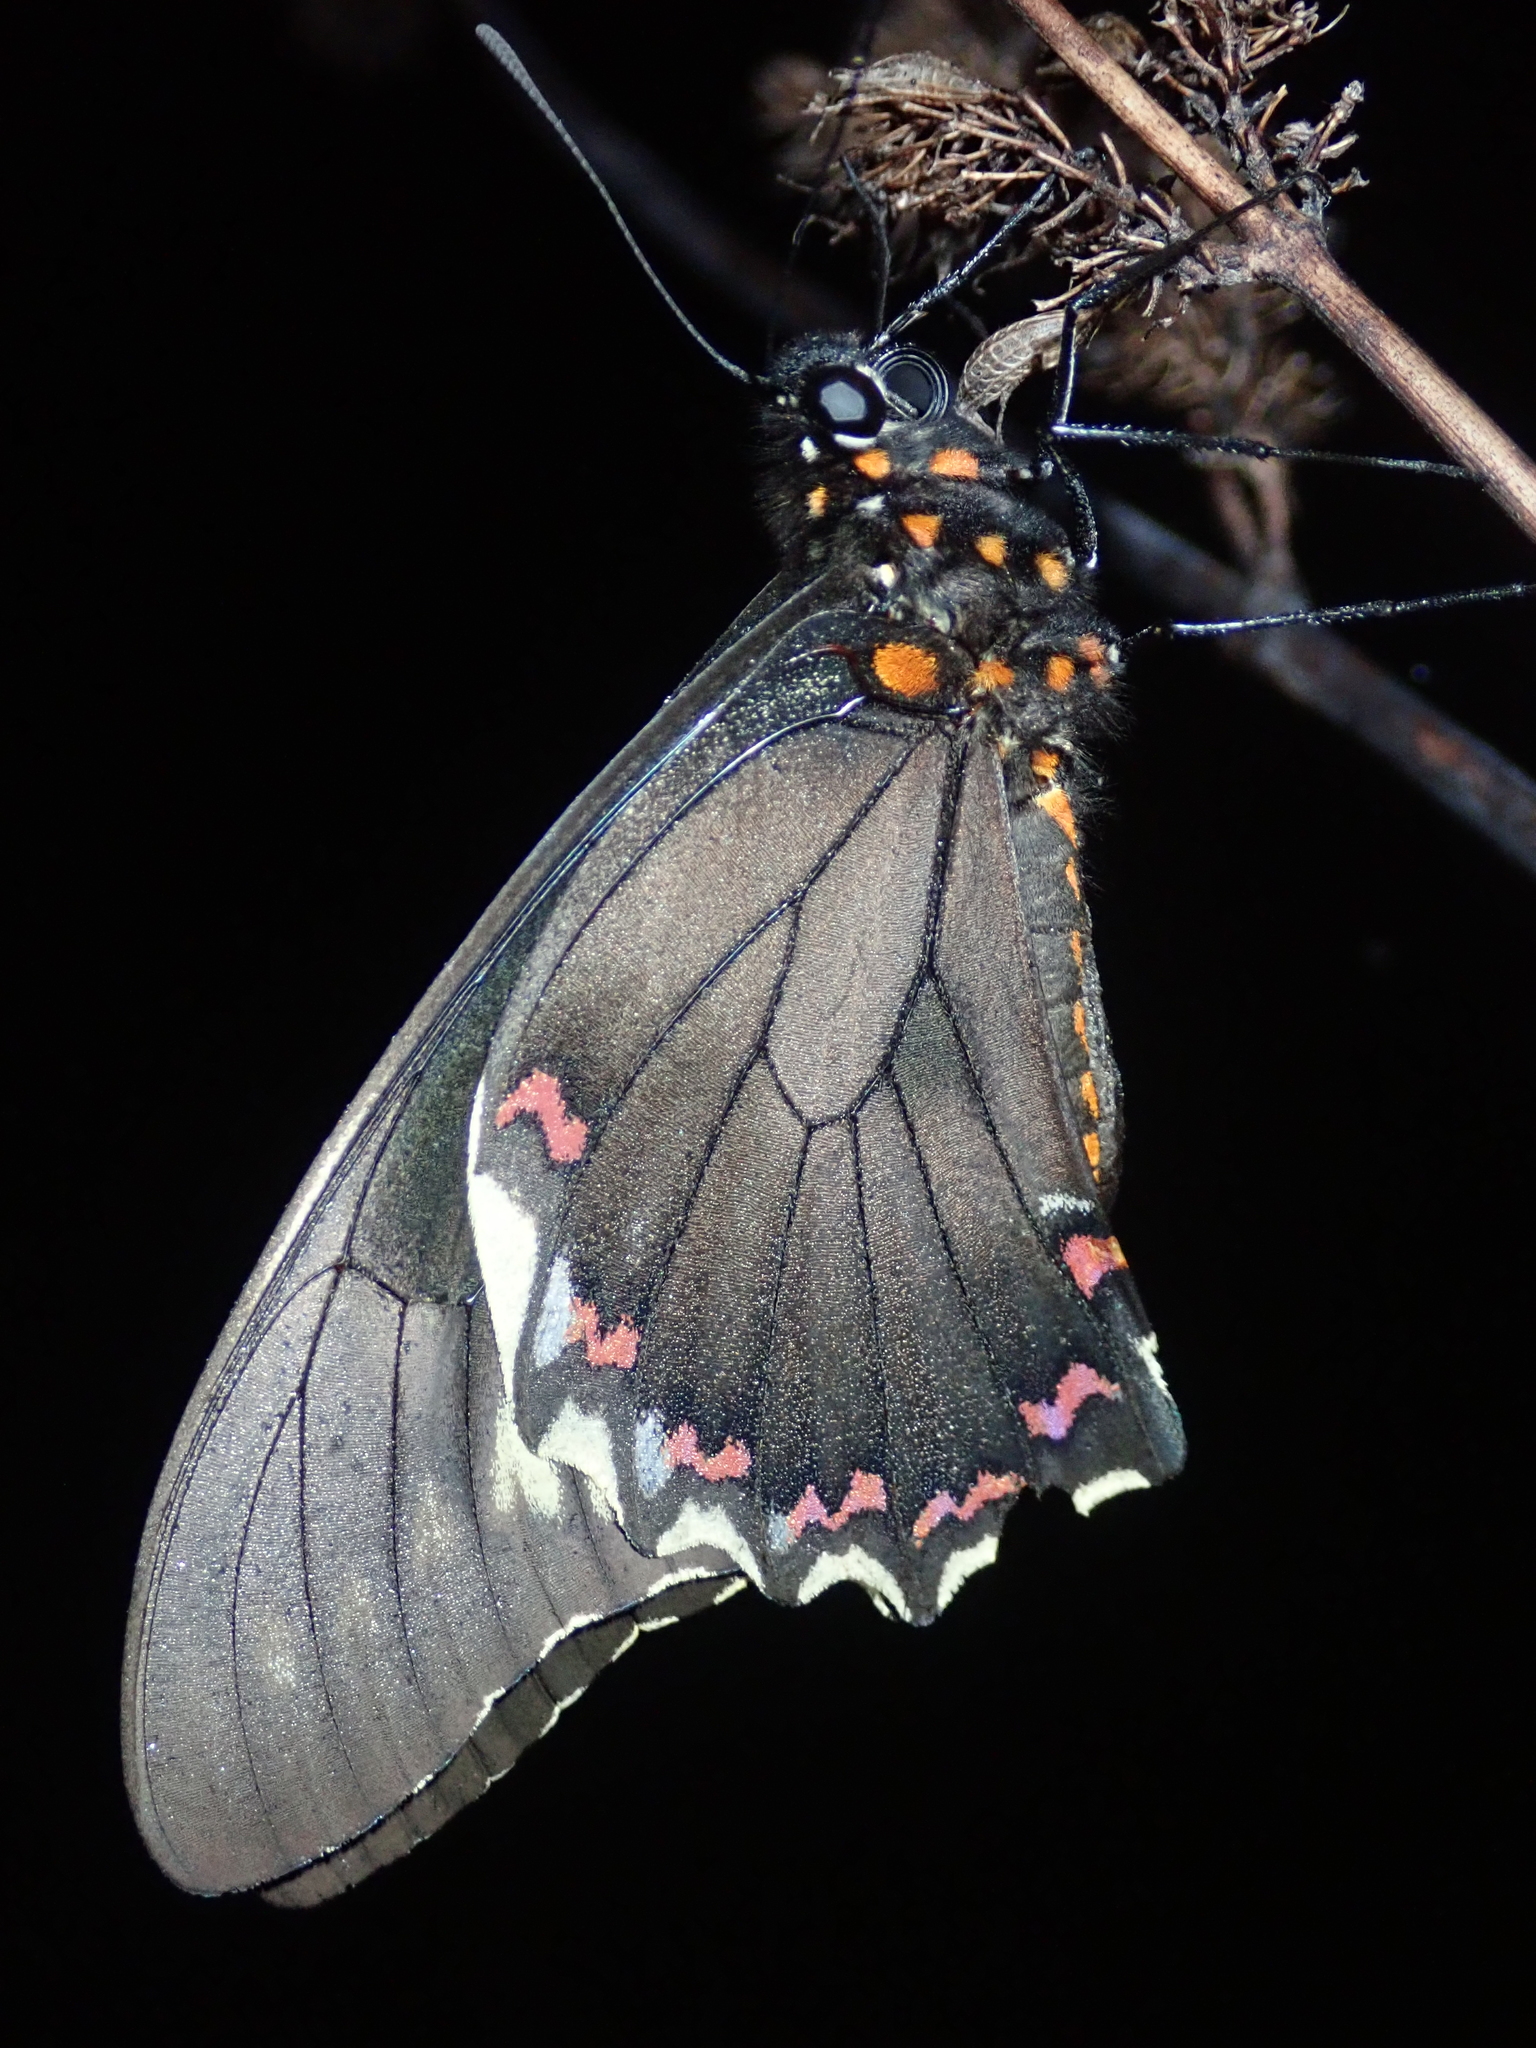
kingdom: Animalia
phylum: Arthropoda
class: Insecta
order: Lepidoptera
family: Papilionidae
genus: Battus
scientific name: Battus polydamas
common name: Polydamas swallowtail
